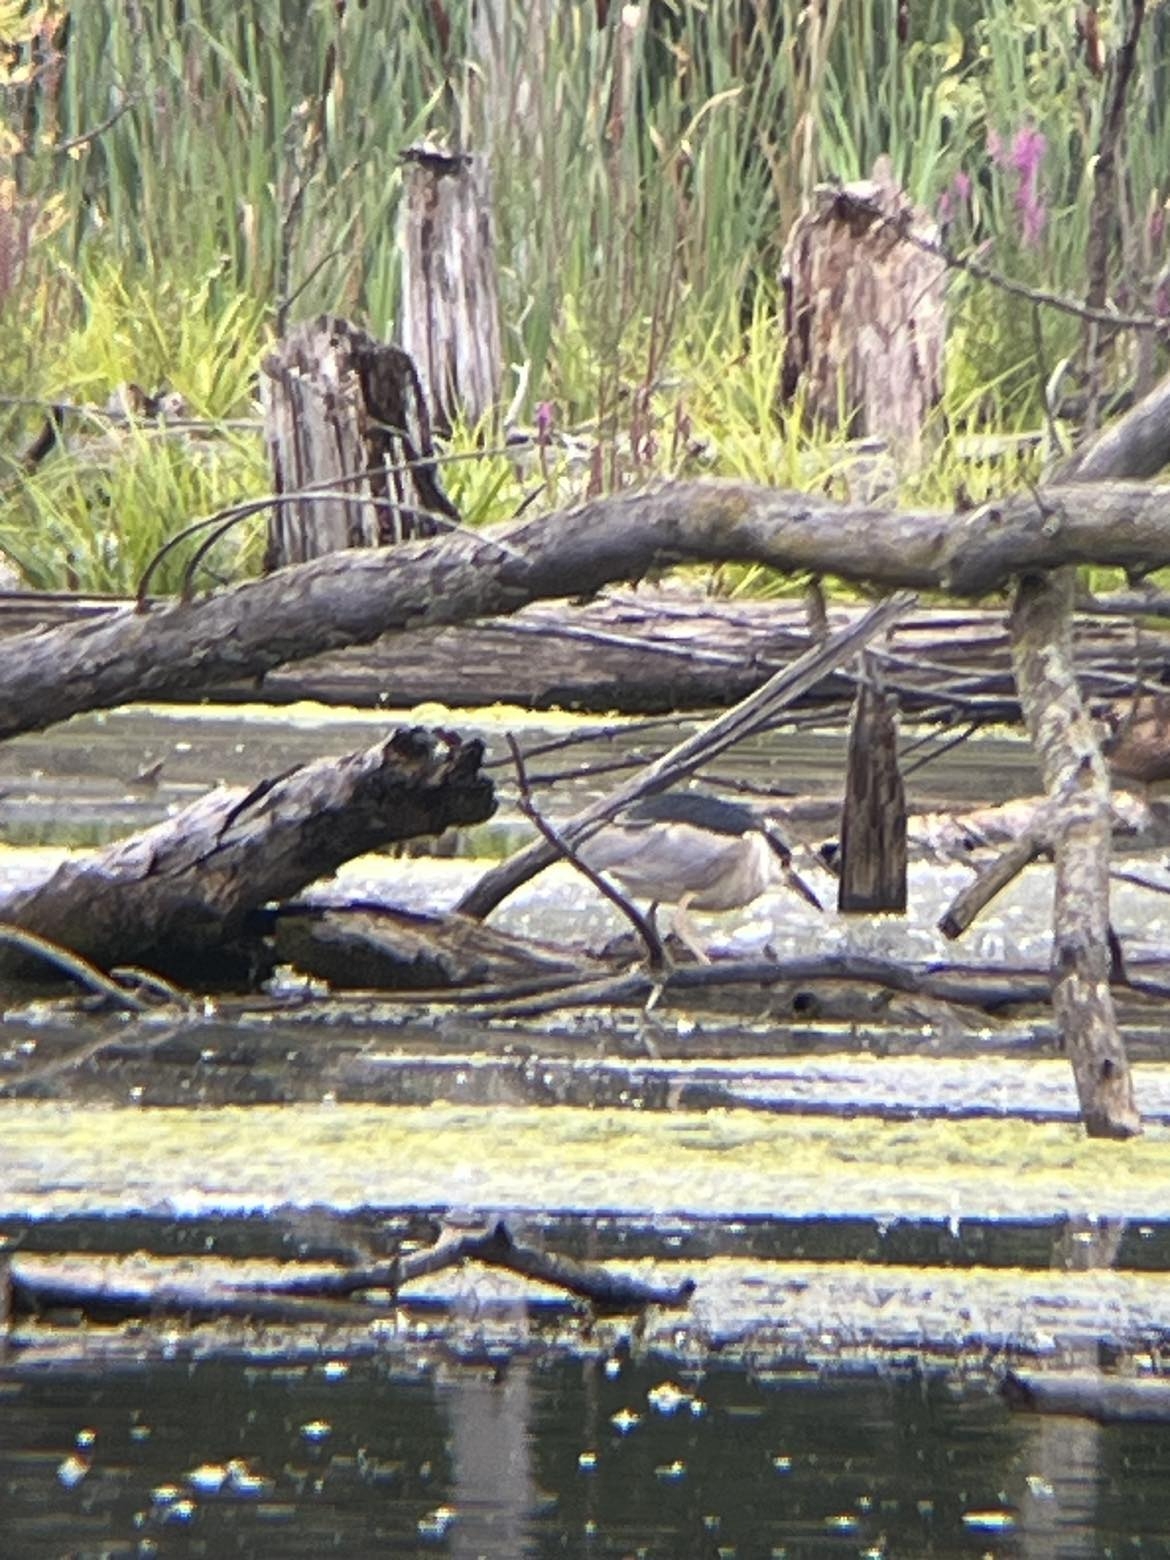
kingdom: Animalia
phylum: Chordata
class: Aves
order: Pelecaniformes
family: Ardeidae
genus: Nycticorax
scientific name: Nycticorax nycticorax
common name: Black-crowned night heron
